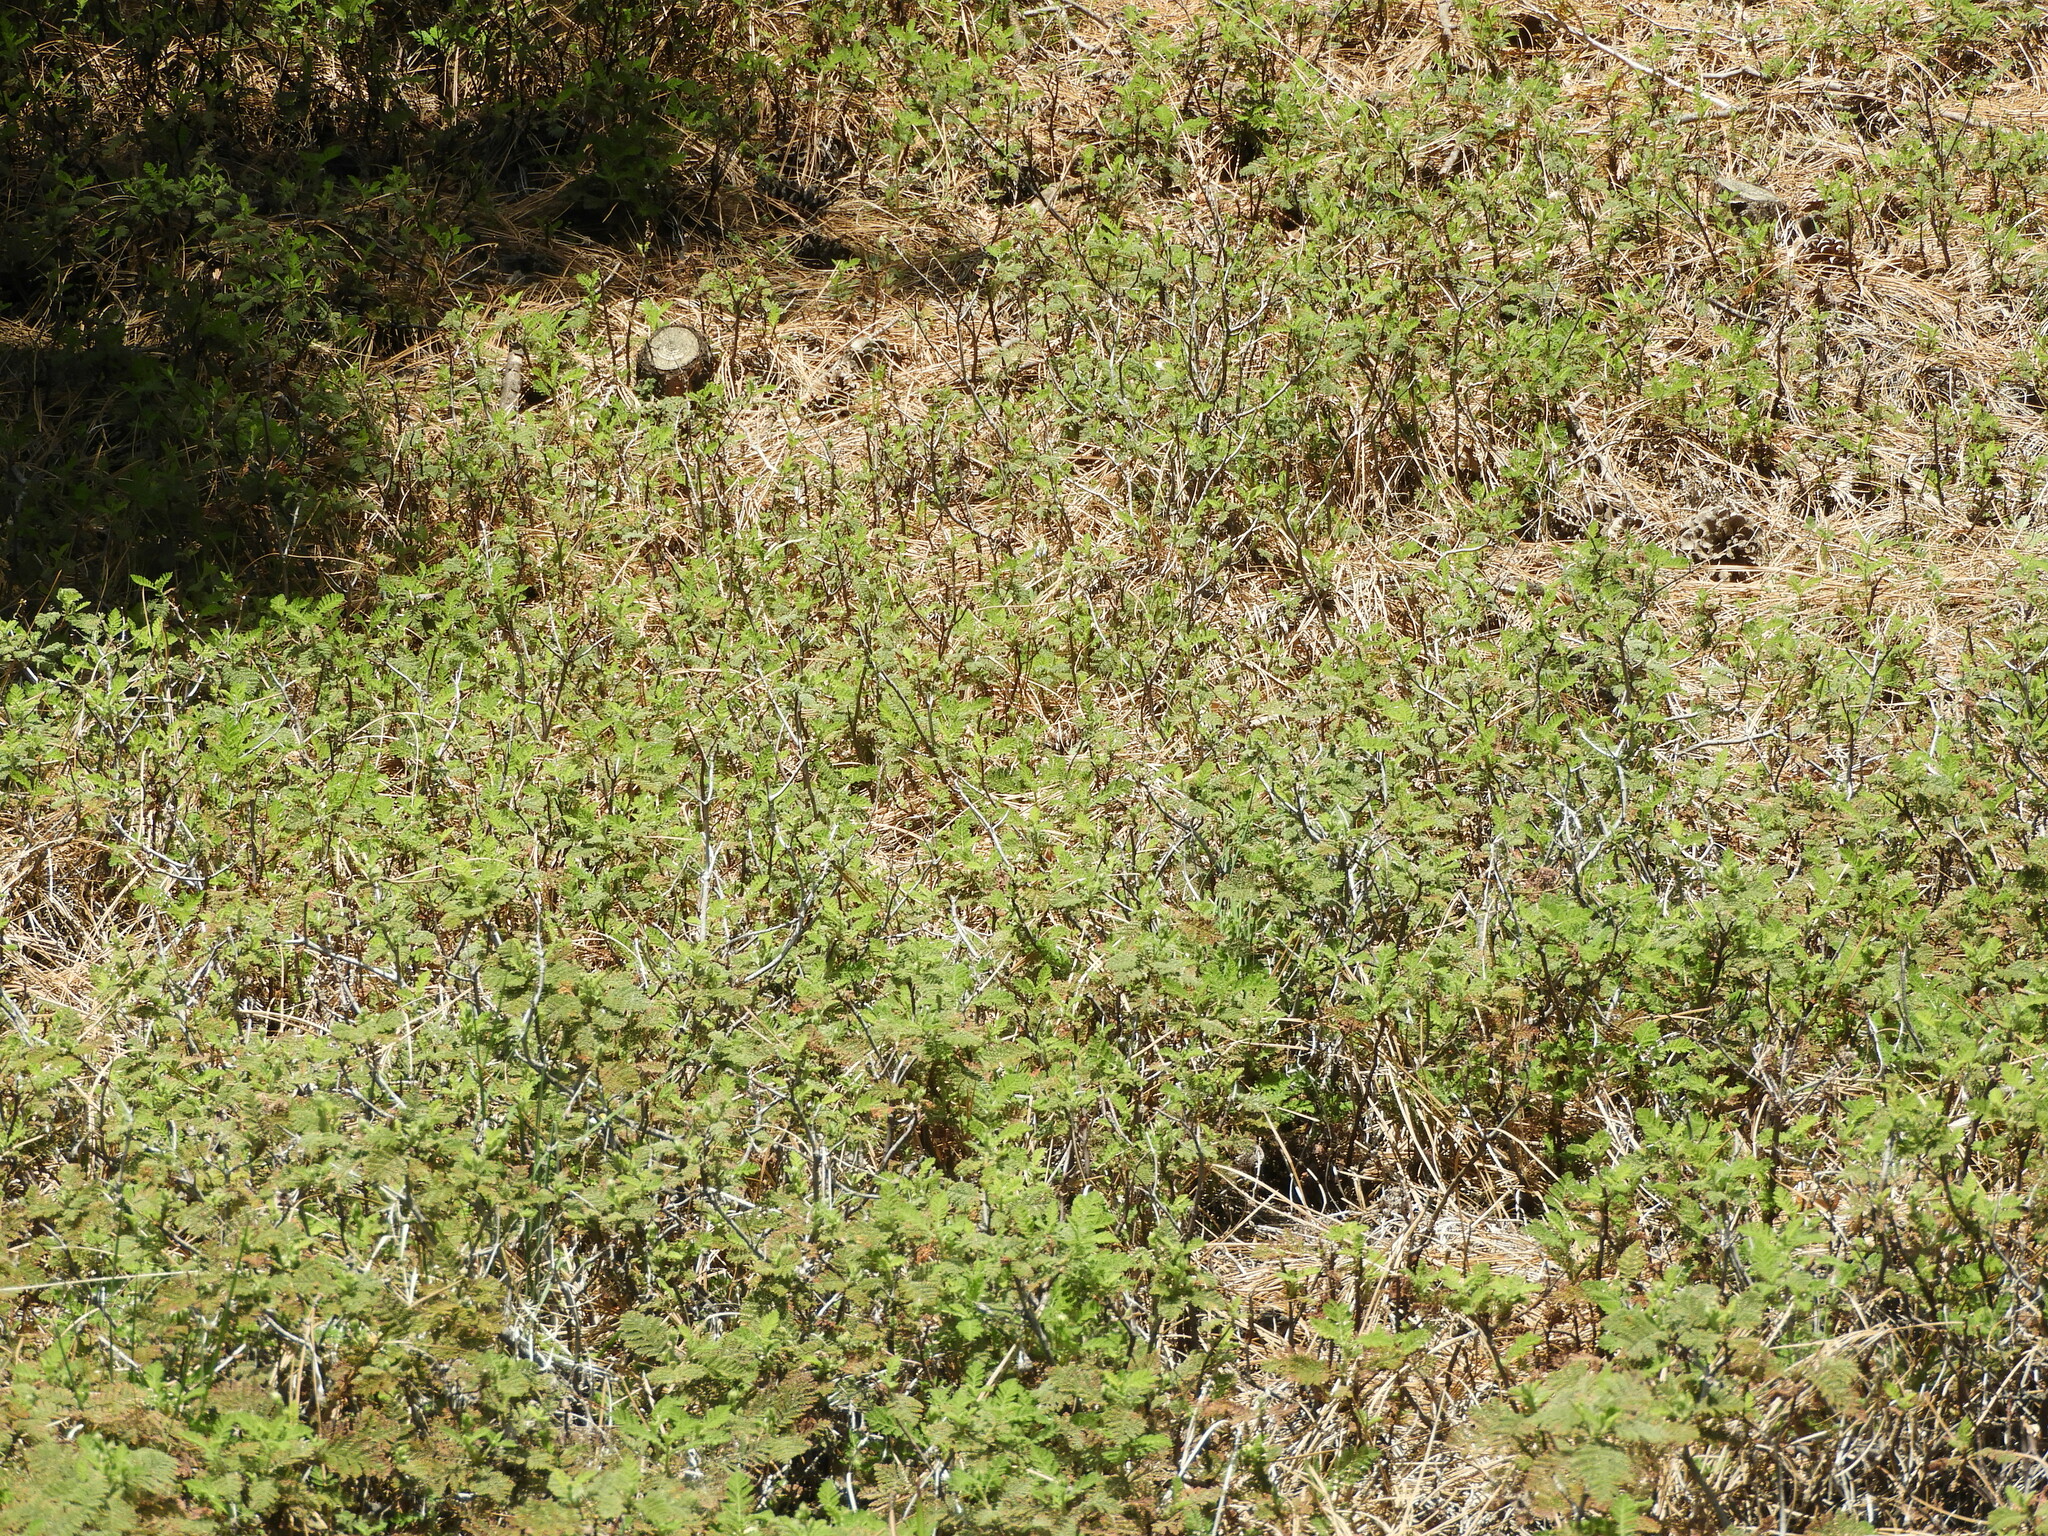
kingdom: Plantae
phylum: Tracheophyta
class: Magnoliopsida
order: Rosales
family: Rosaceae
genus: Chamaebatia
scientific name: Chamaebatia foliolosa
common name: Mountain misery
